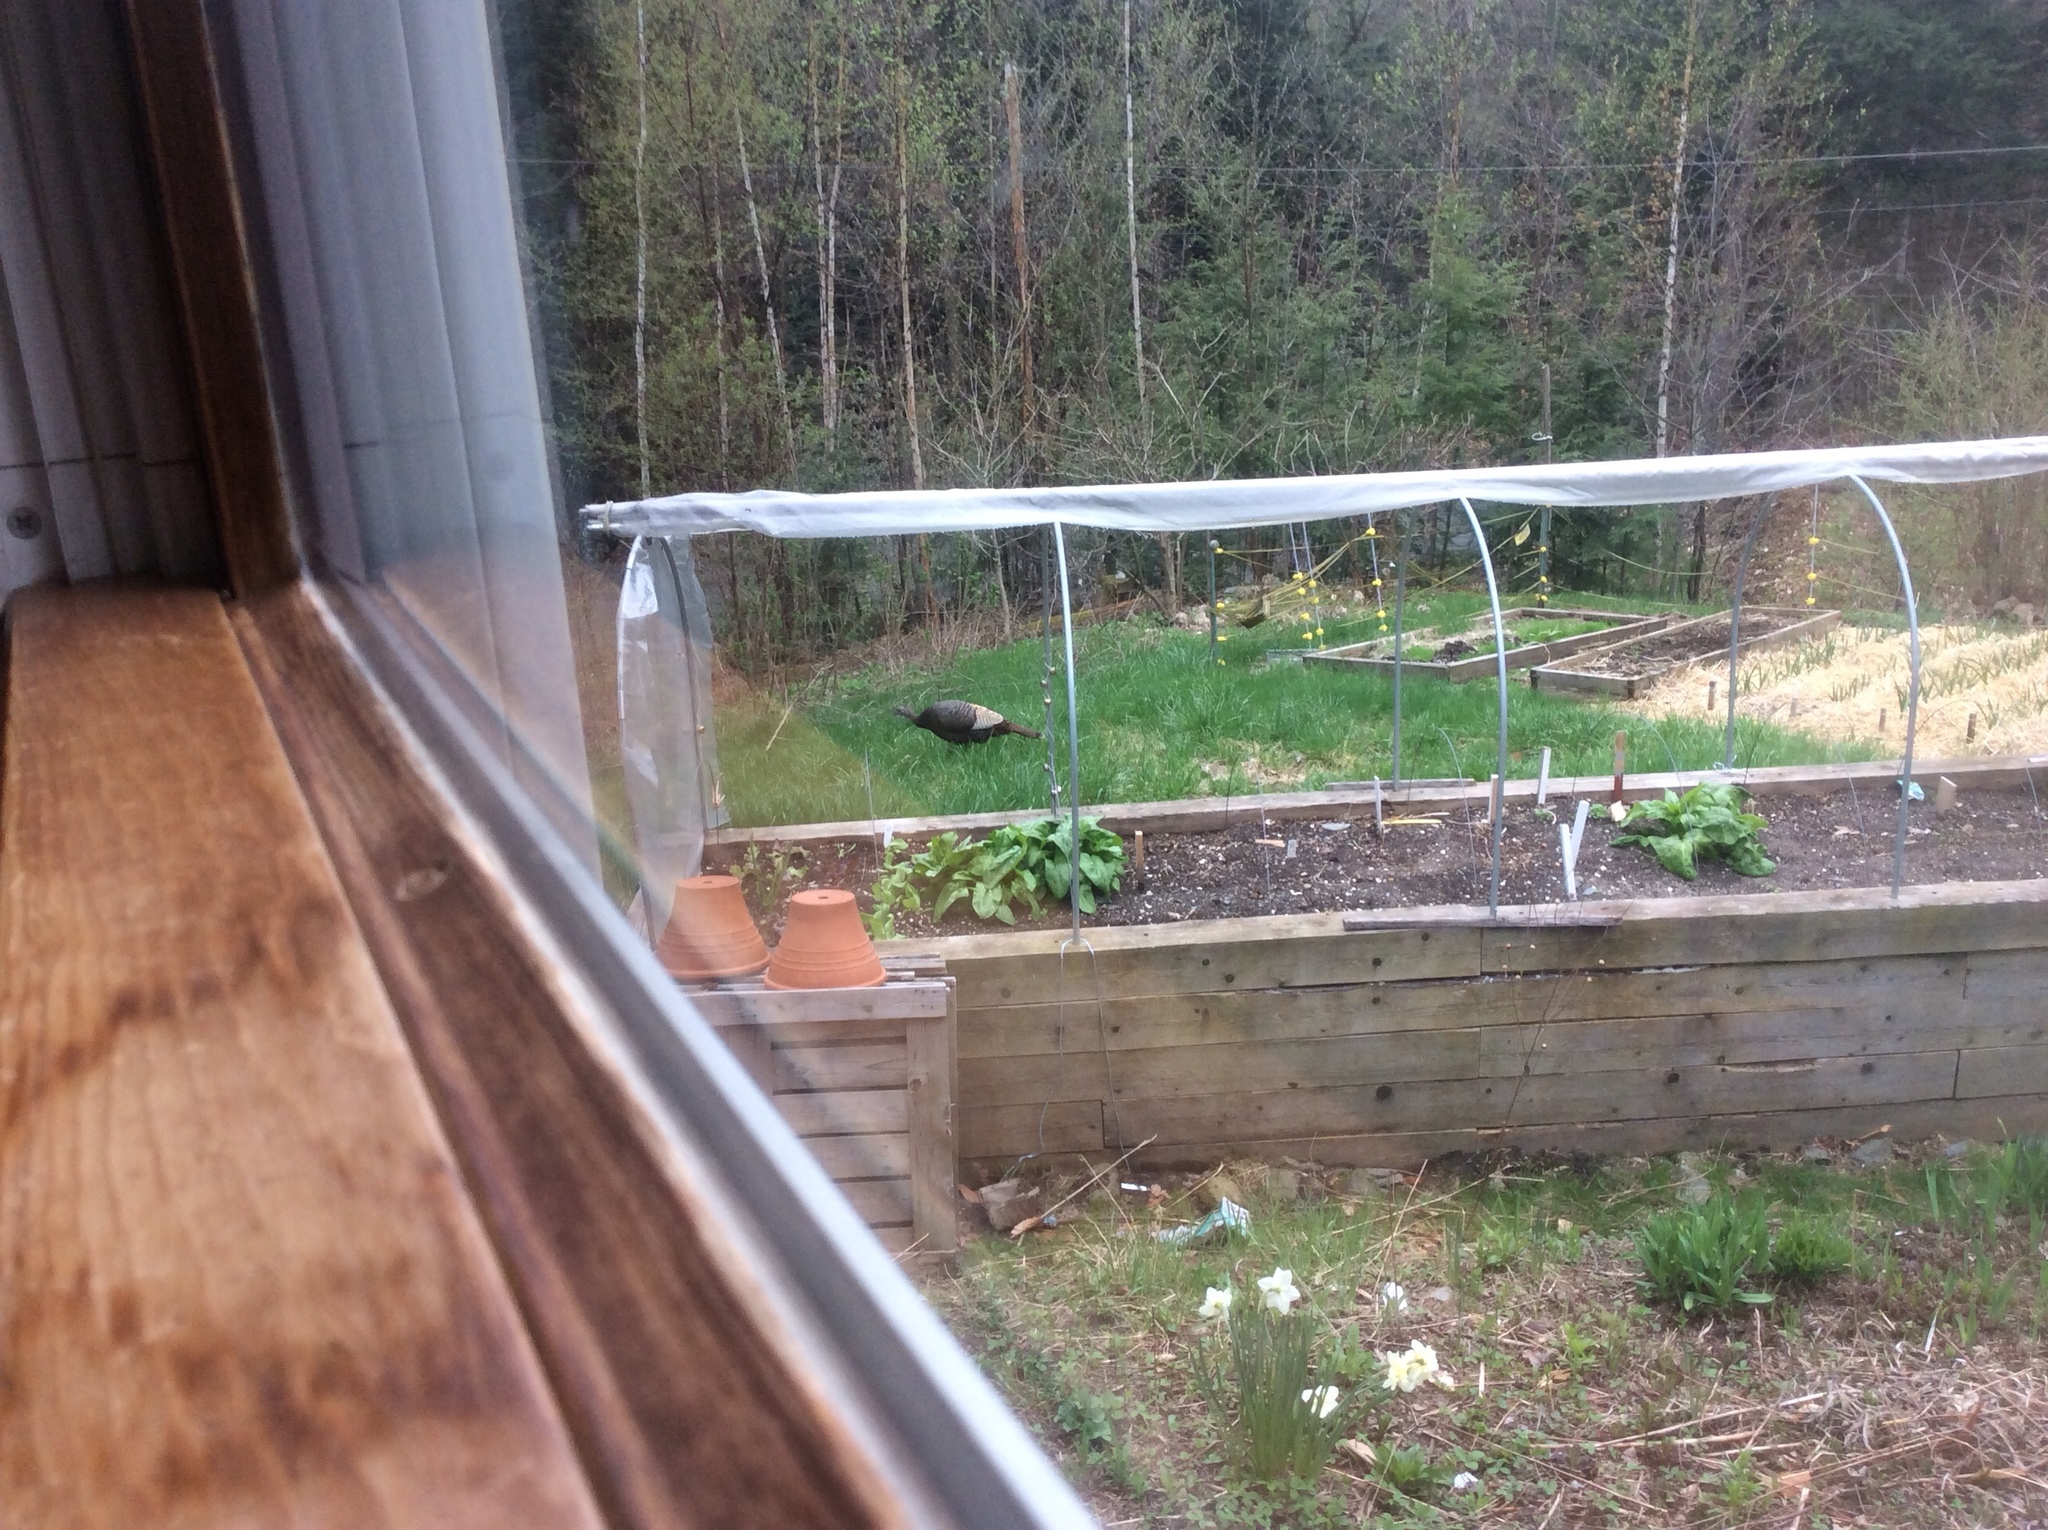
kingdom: Animalia
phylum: Chordata
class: Aves
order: Galliformes
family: Phasianidae
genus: Meleagris
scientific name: Meleagris gallopavo
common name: Wild turkey
